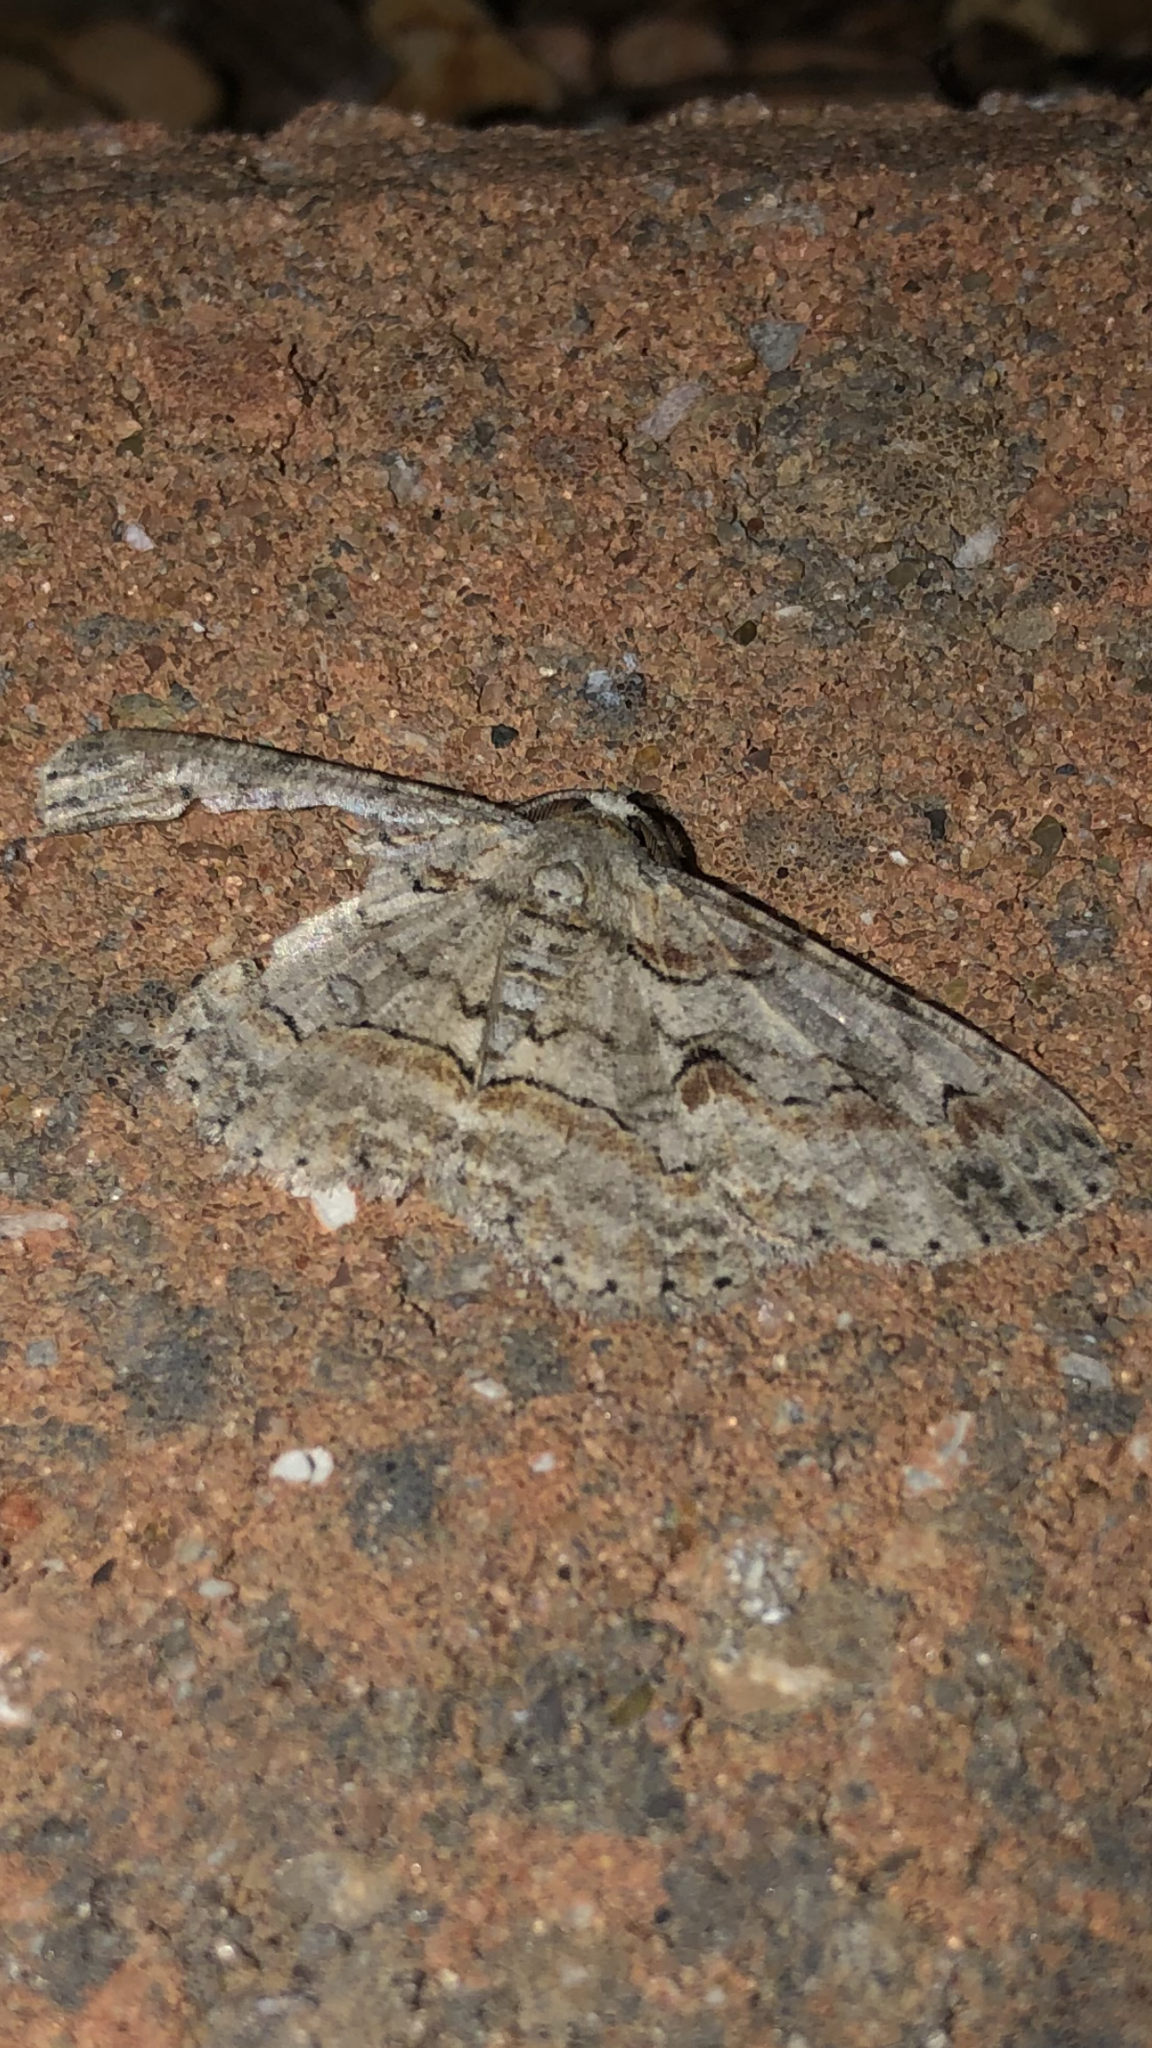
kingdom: Animalia
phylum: Arthropoda
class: Insecta
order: Lepidoptera
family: Geometridae
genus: Iridopsis
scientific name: Iridopsis defectaria
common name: Brown-shaded gray
